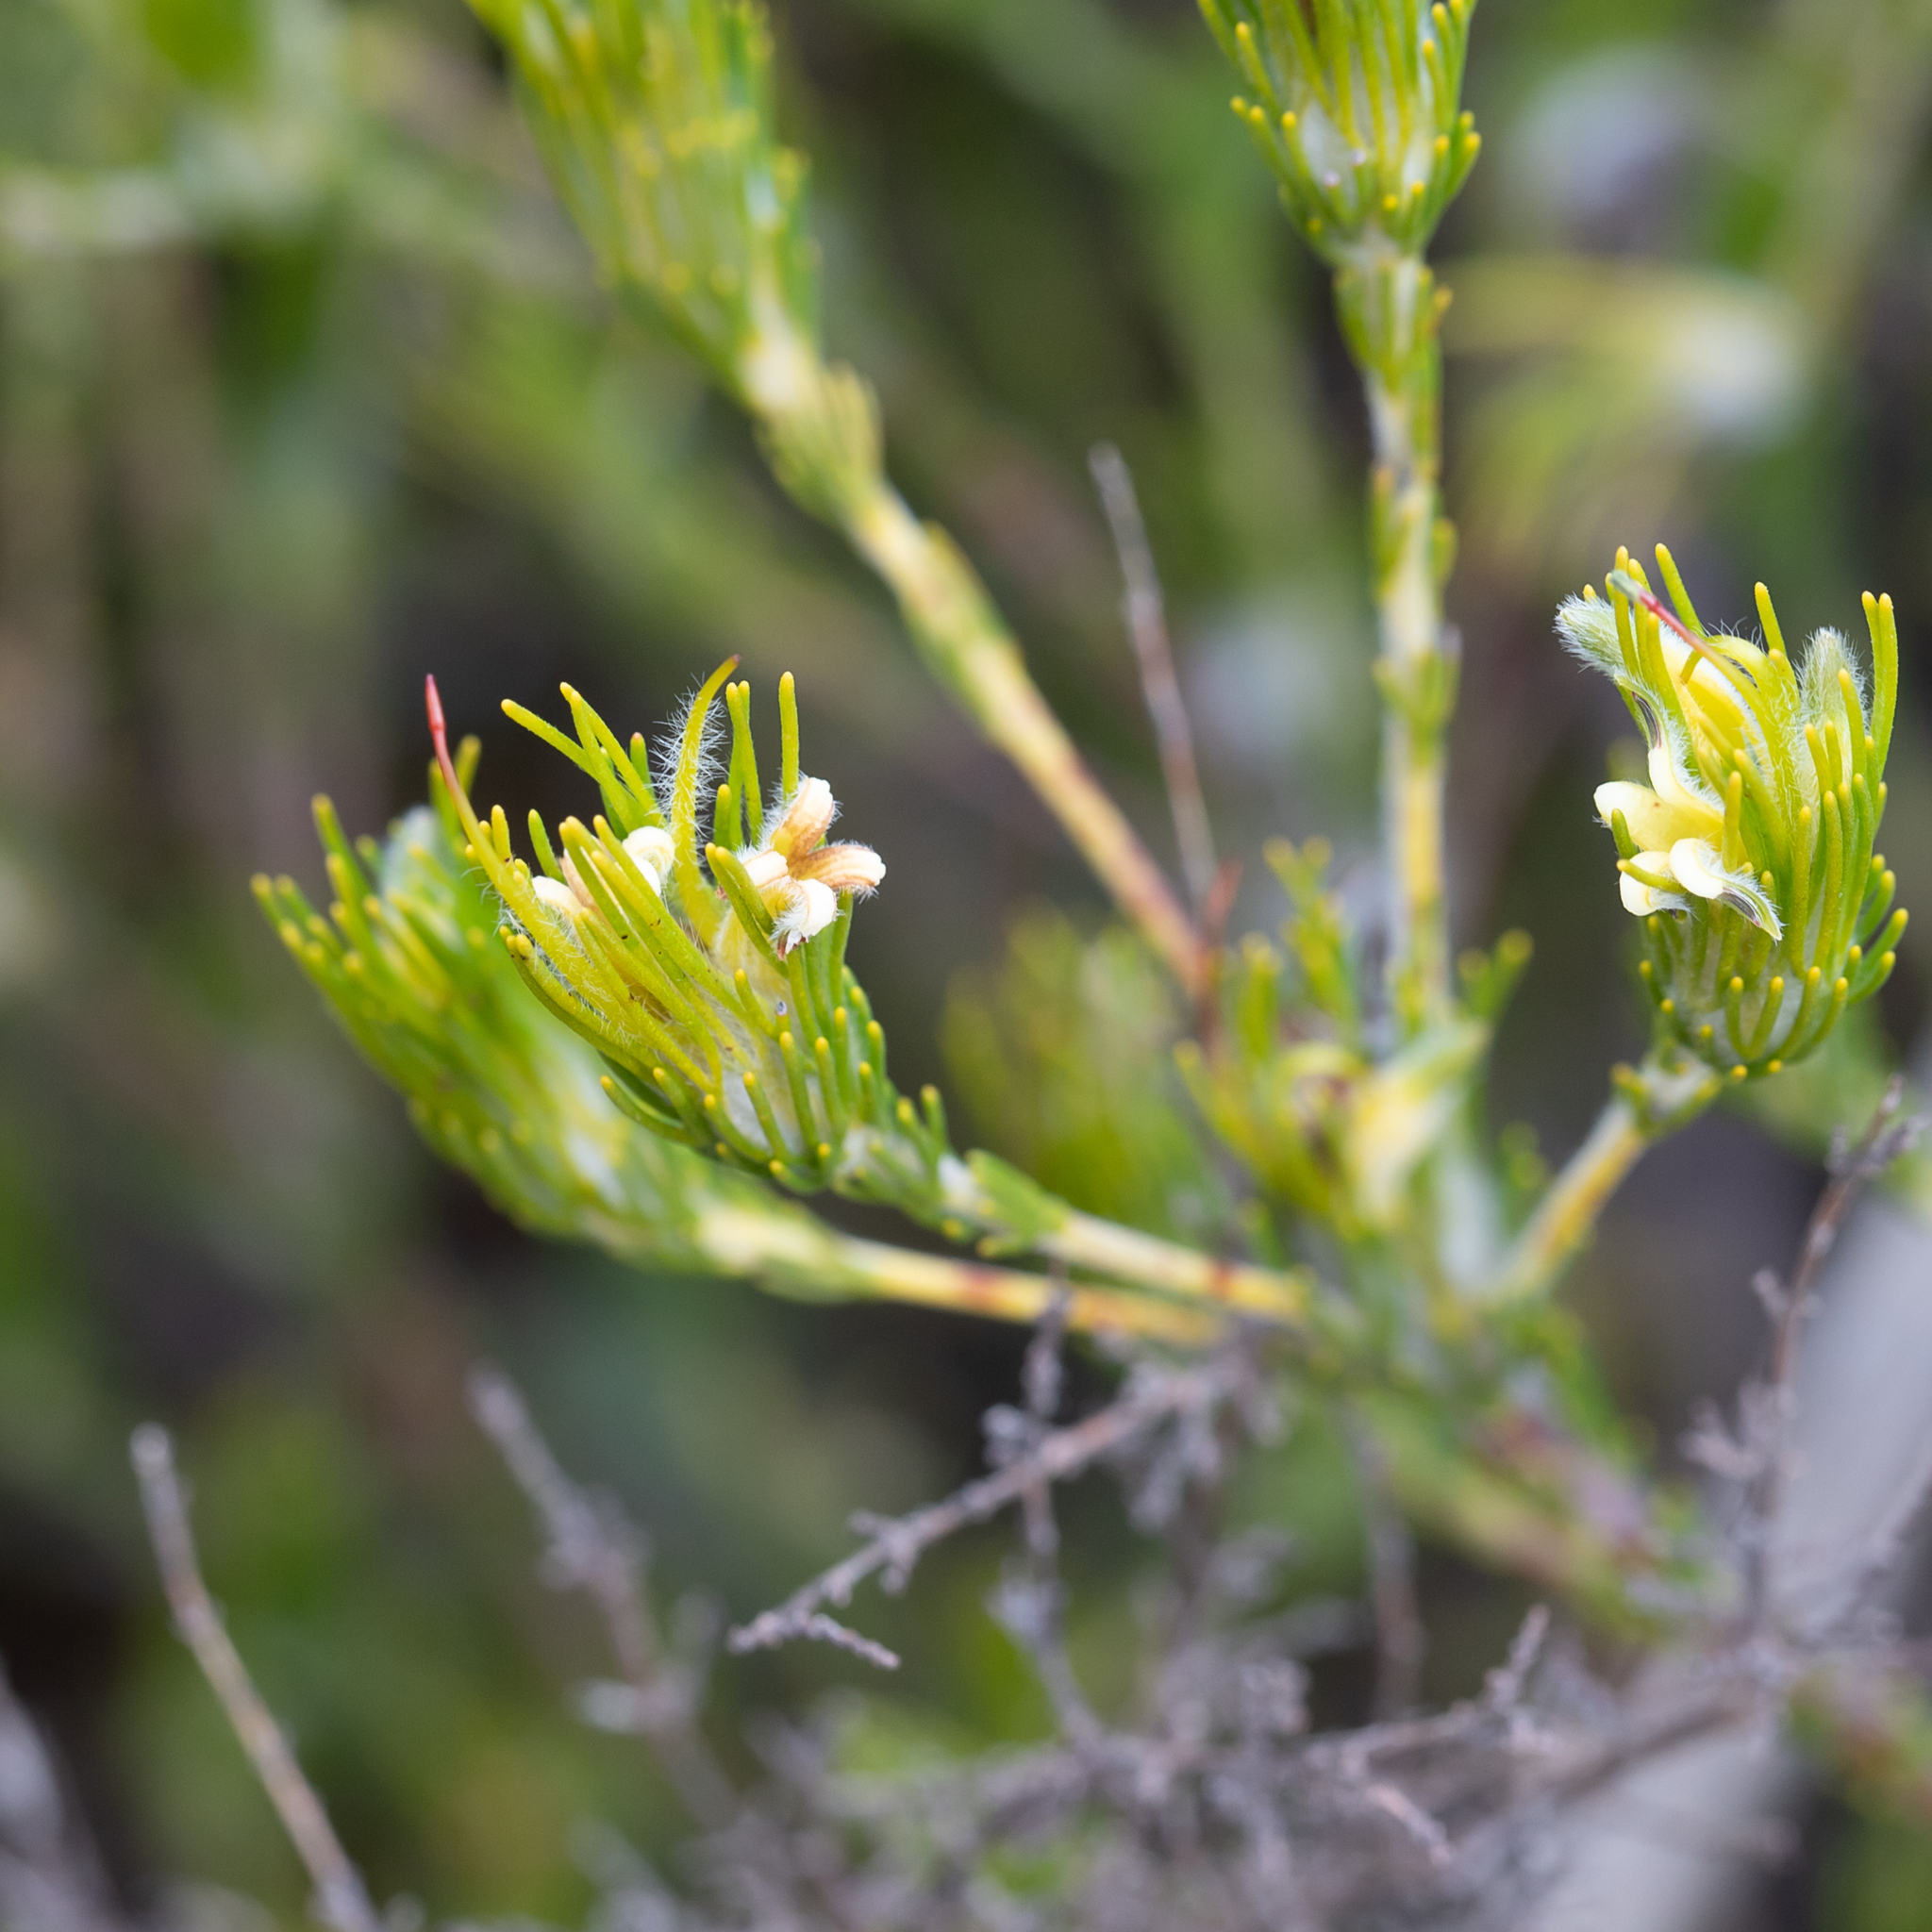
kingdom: Plantae
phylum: Tracheophyta
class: Magnoliopsida
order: Proteales
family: Proteaceae
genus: Adenanthos
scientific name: Adenanthos terminalis
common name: Yellow gland-flower
